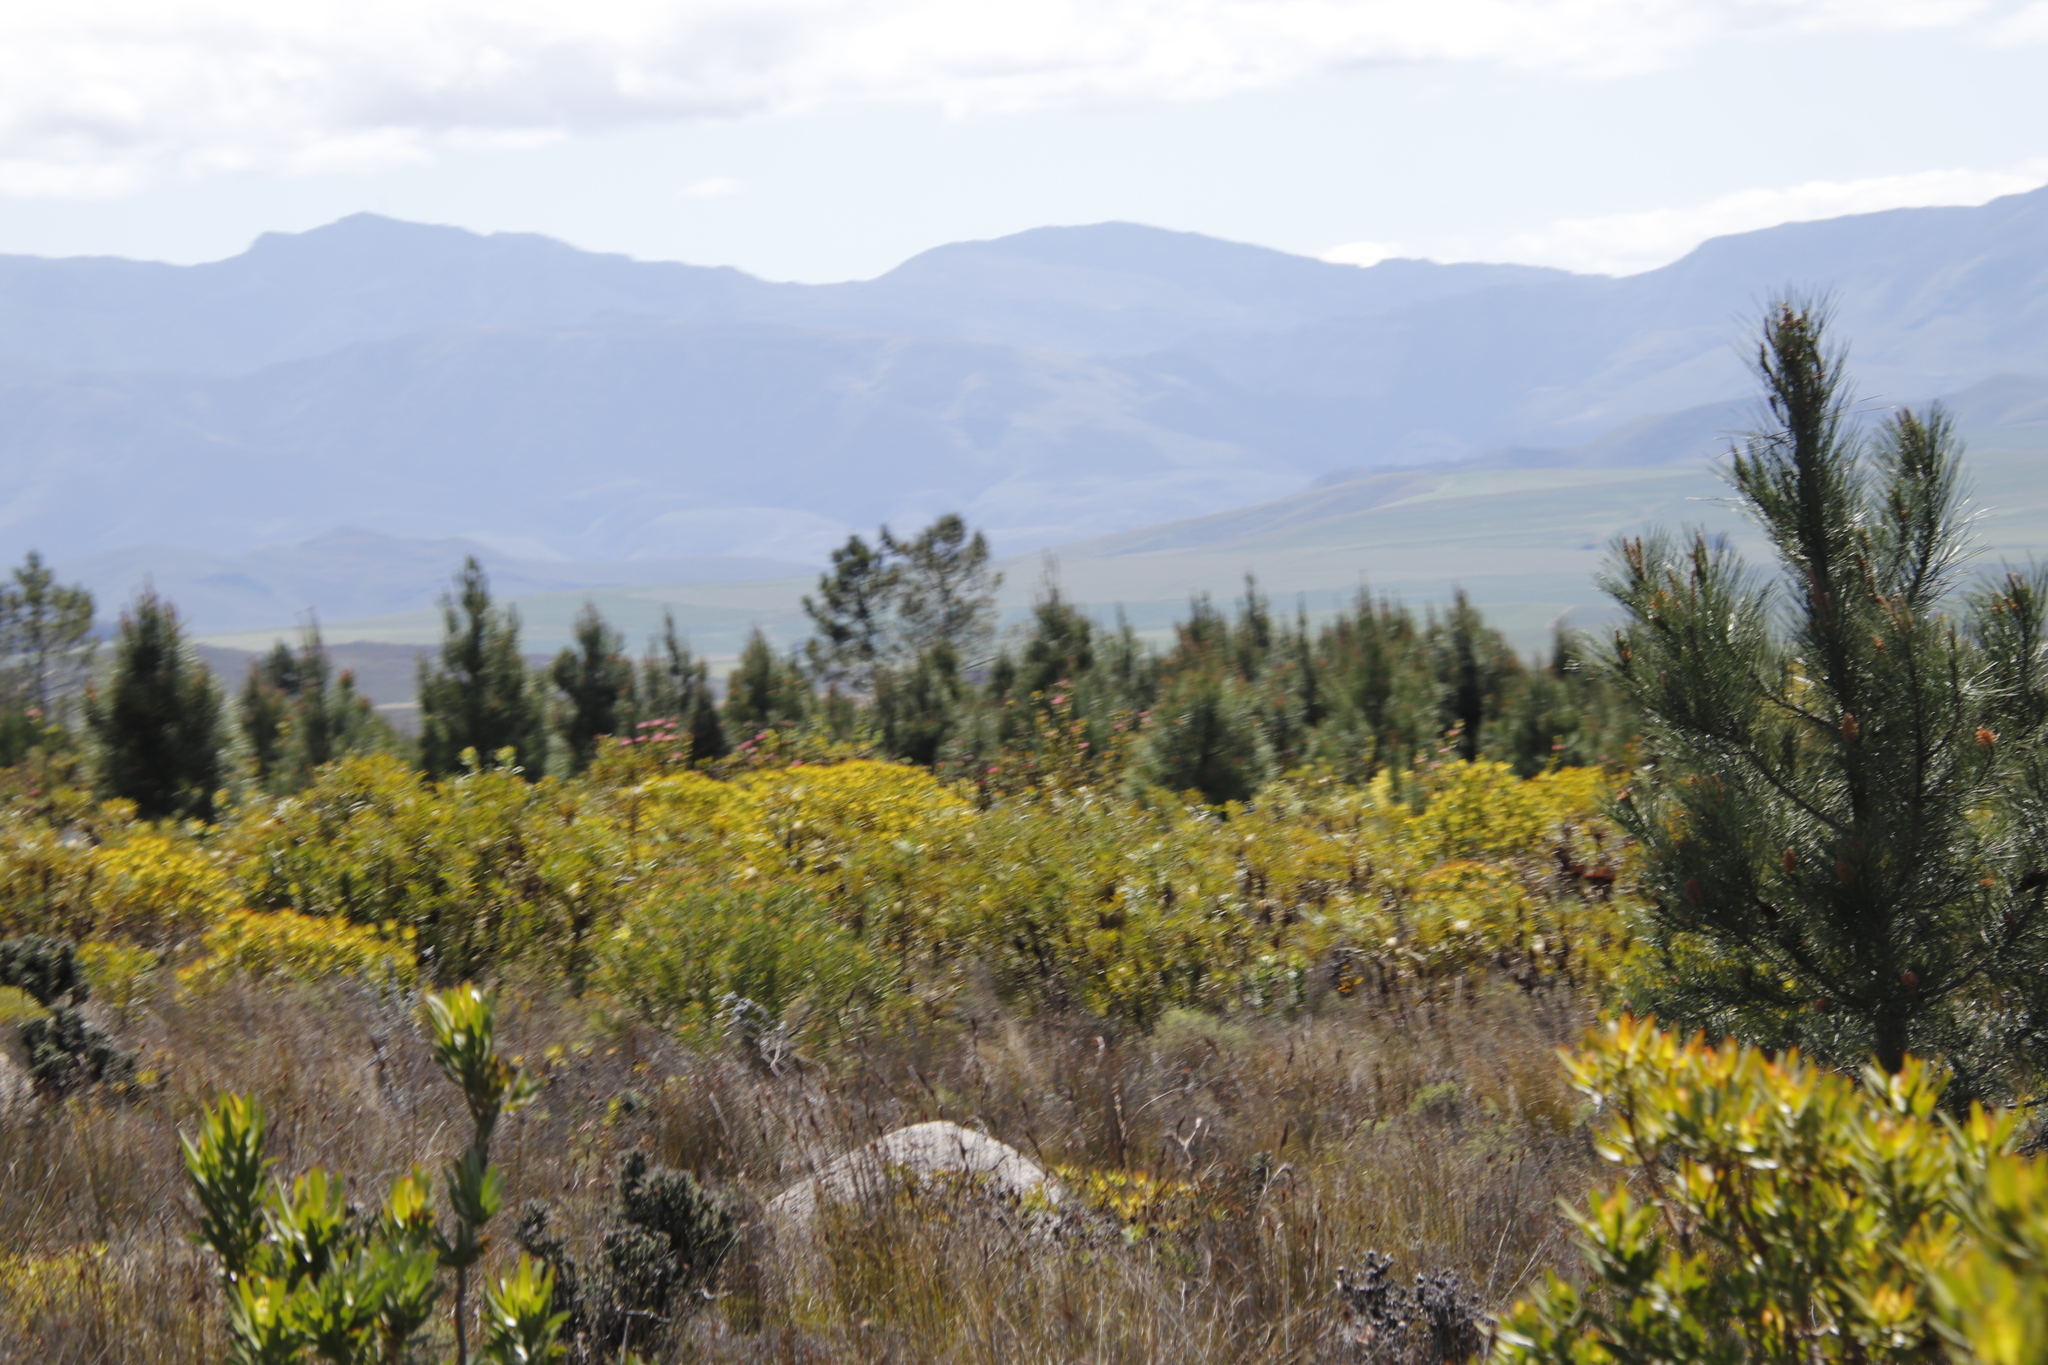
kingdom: Plantae
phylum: Tracheophyta
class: Magnoliopsida
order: Proteales
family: Proteaceae
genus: Leucadendron
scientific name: Leucadendron laureolum
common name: Golden sunshinebush
